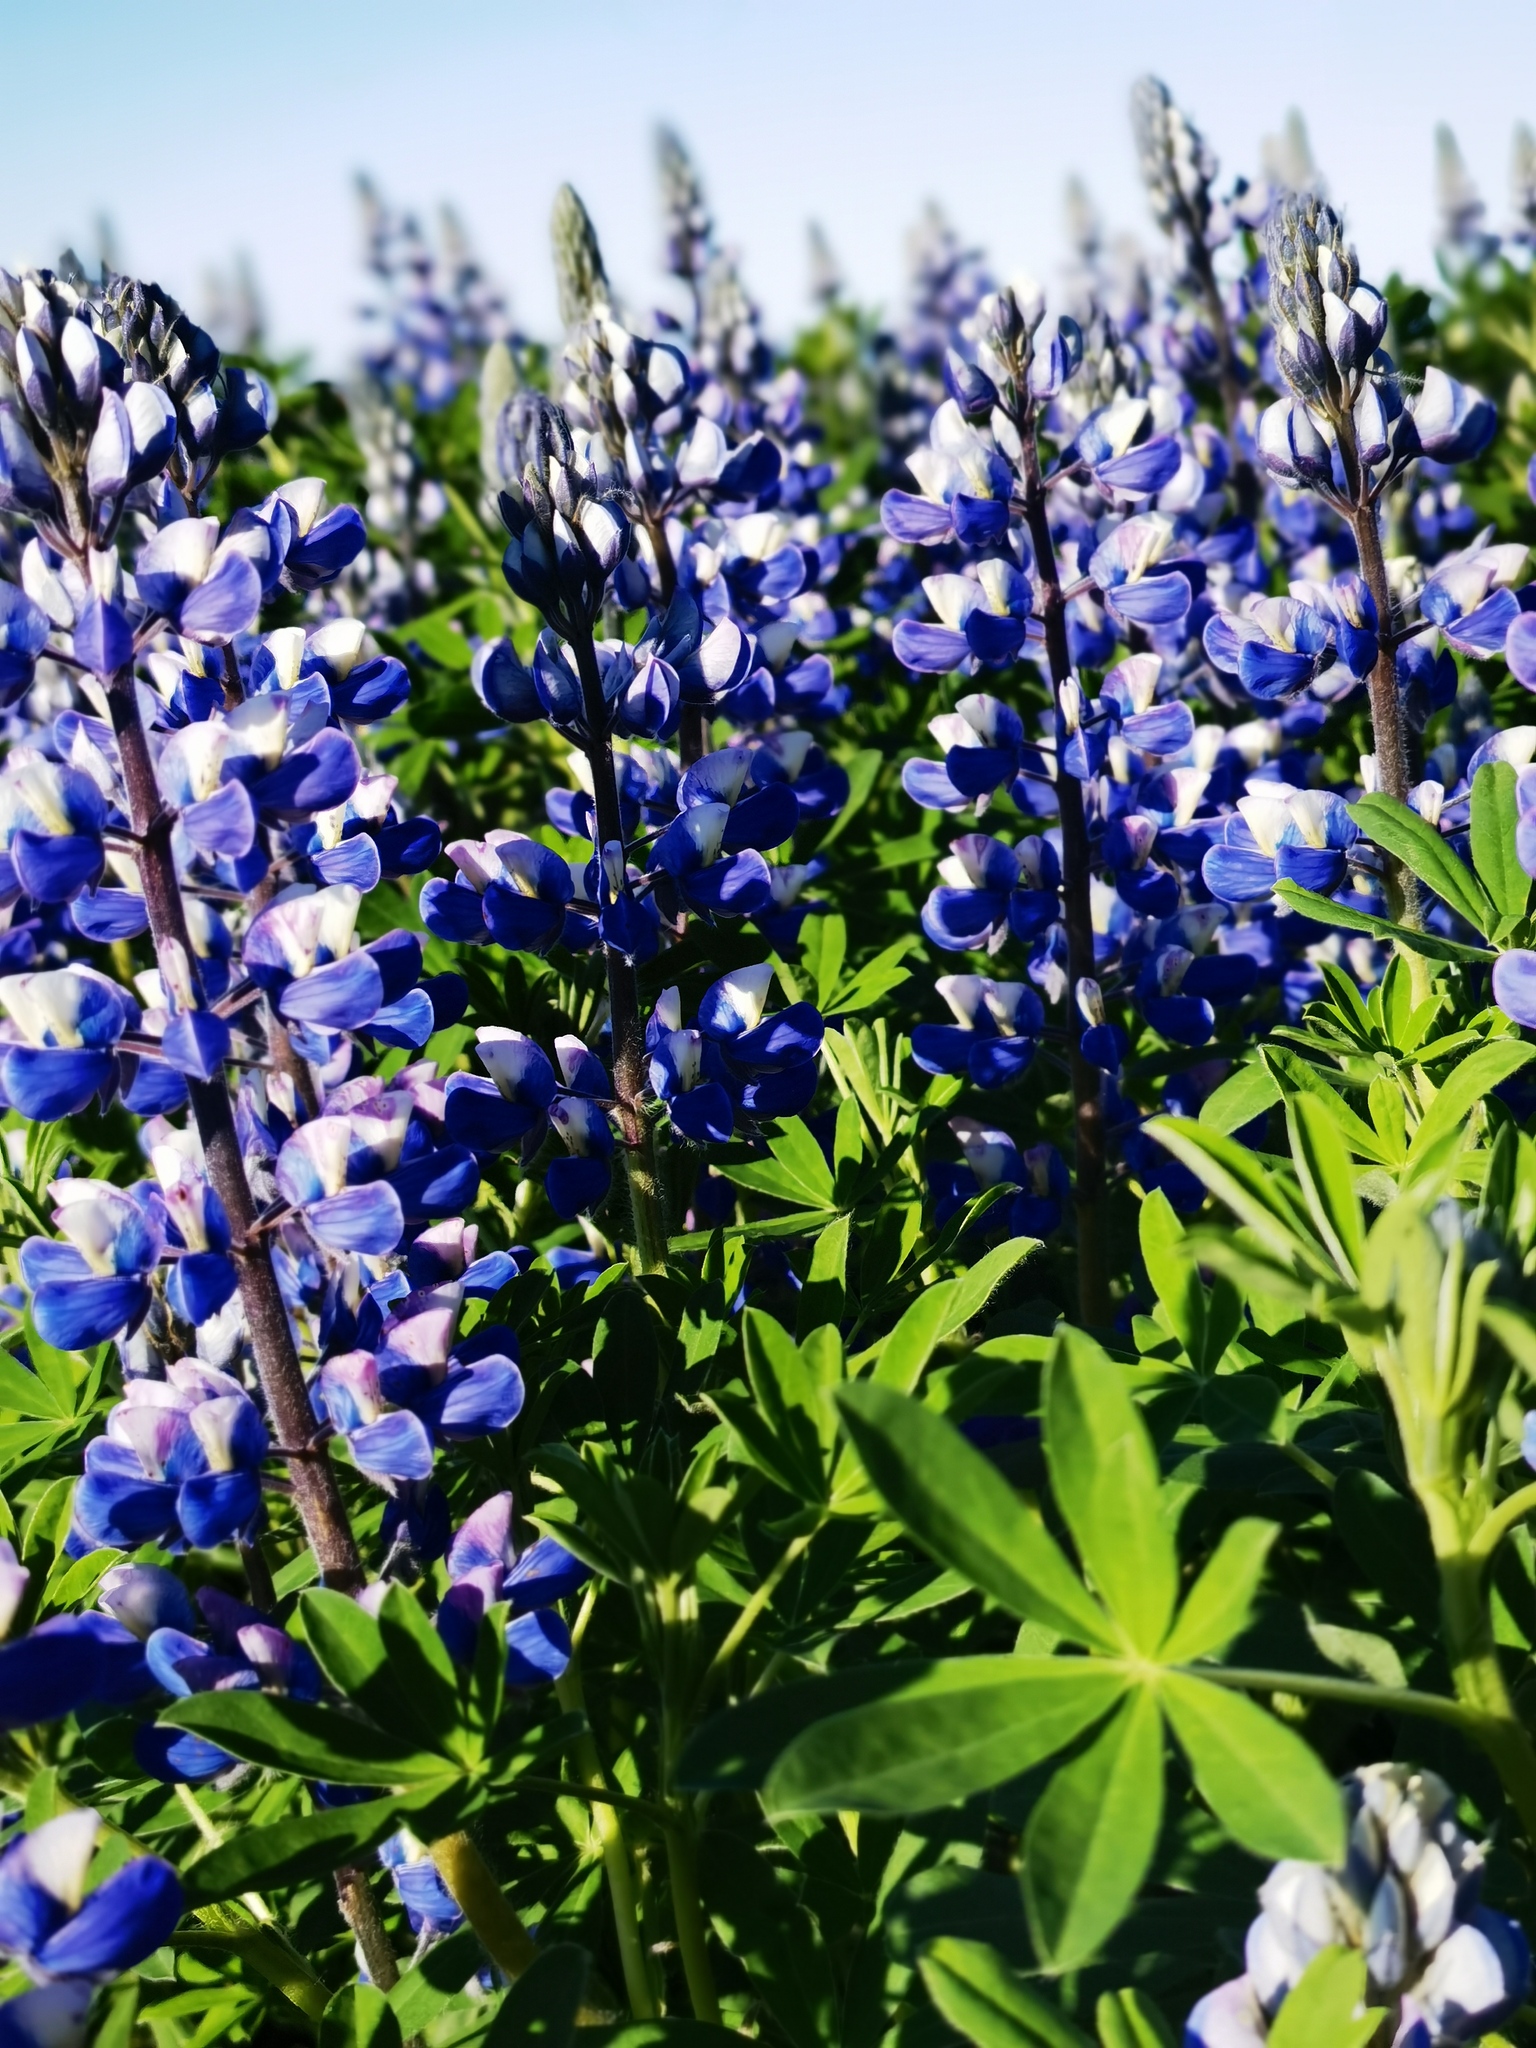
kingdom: Plantae
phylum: Tracheophyta
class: Magnoliopsida
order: Fabales
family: Fabaceae
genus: Lupinus
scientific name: Lupinus nootkatensis
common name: Nootka lupine
